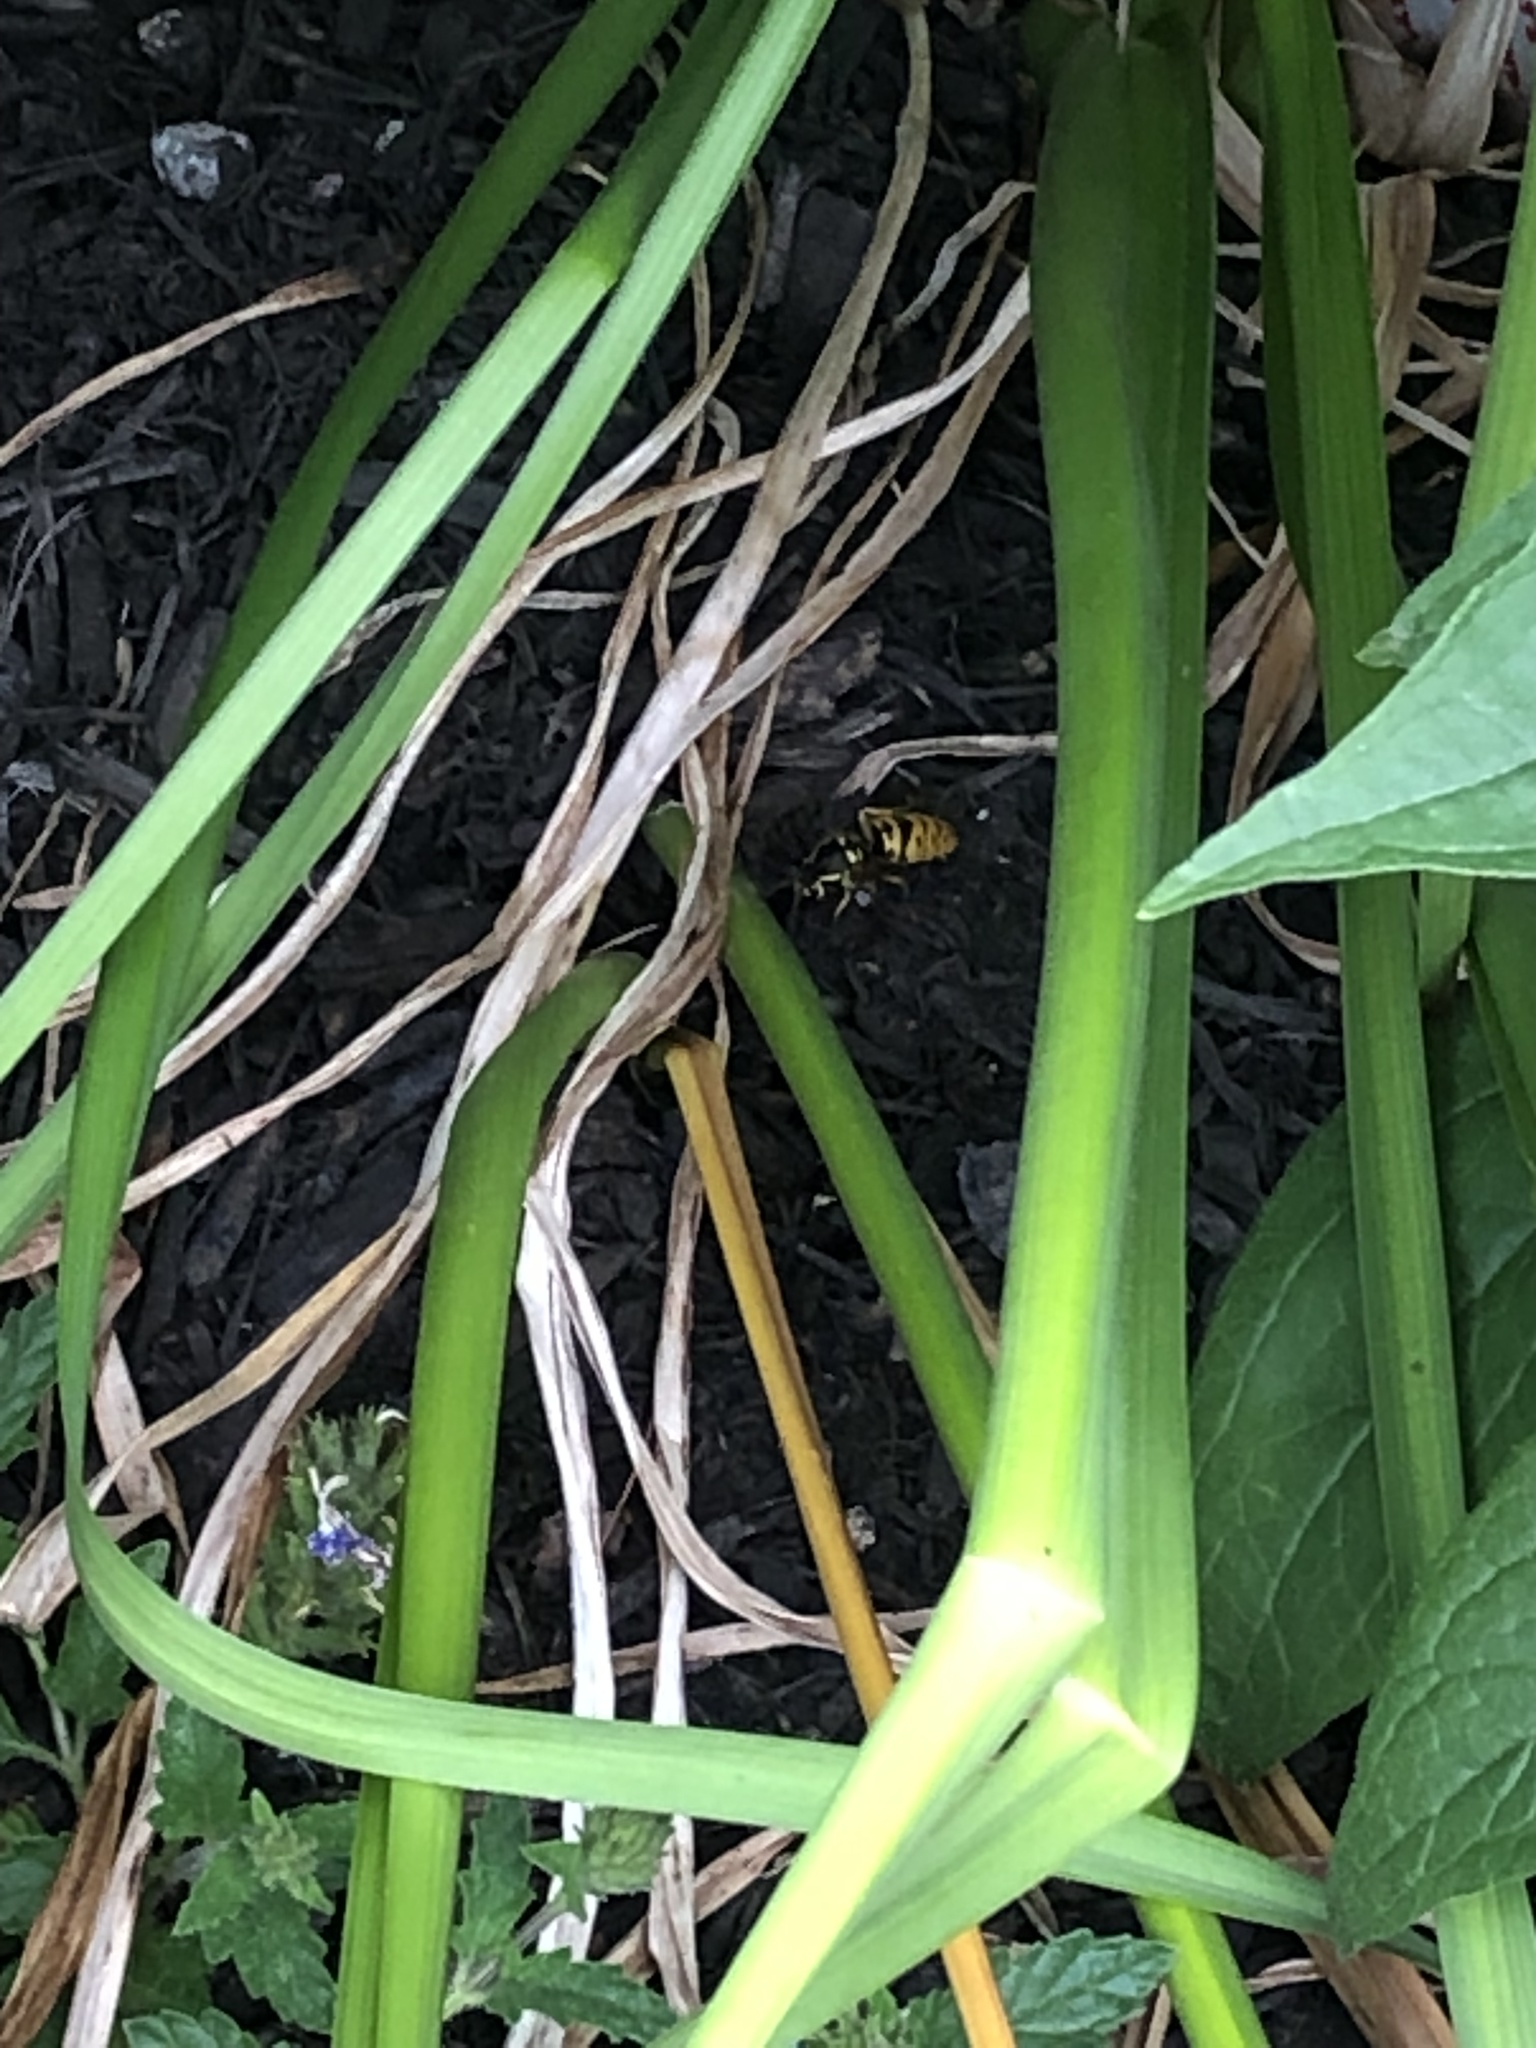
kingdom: Animalia
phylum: Arthropoda
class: Insecta
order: Hymenoptera
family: Vespidae
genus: Vespula
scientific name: Vespula maculifrons
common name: Eastern yellowjacket
